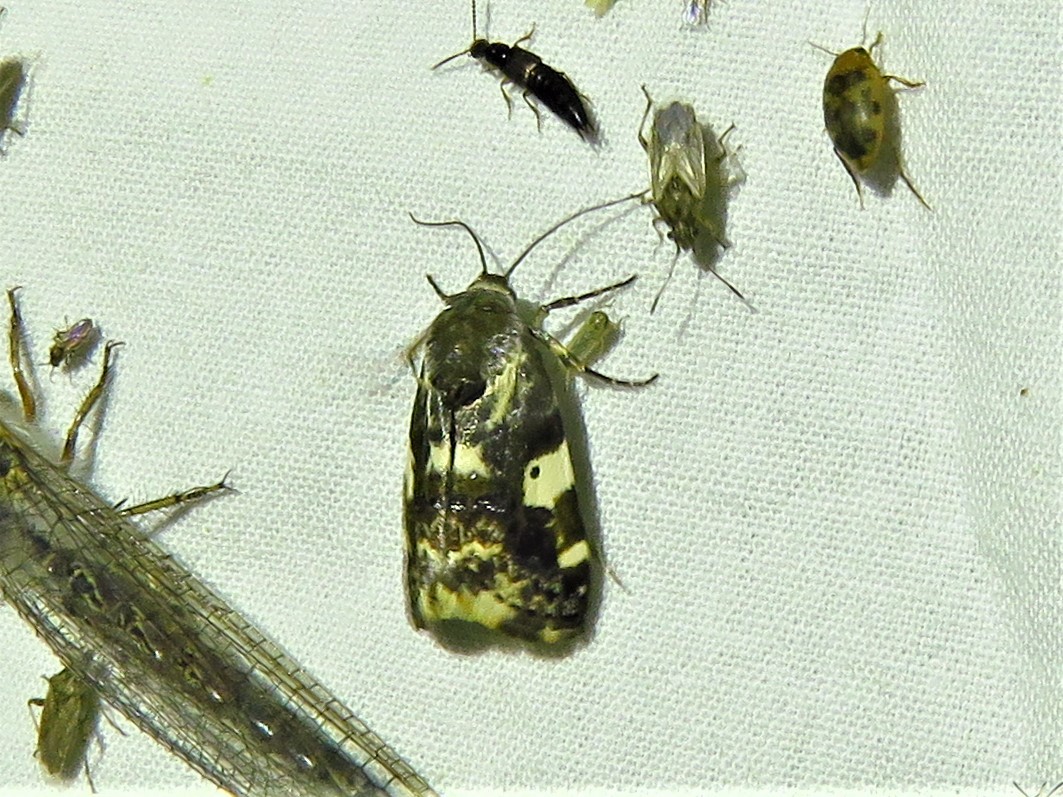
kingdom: Animalia
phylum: Arthropoda
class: Insecta
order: Lepidoptera
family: Noctuidae
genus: Acontia
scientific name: Acontia aprica
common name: Nun
